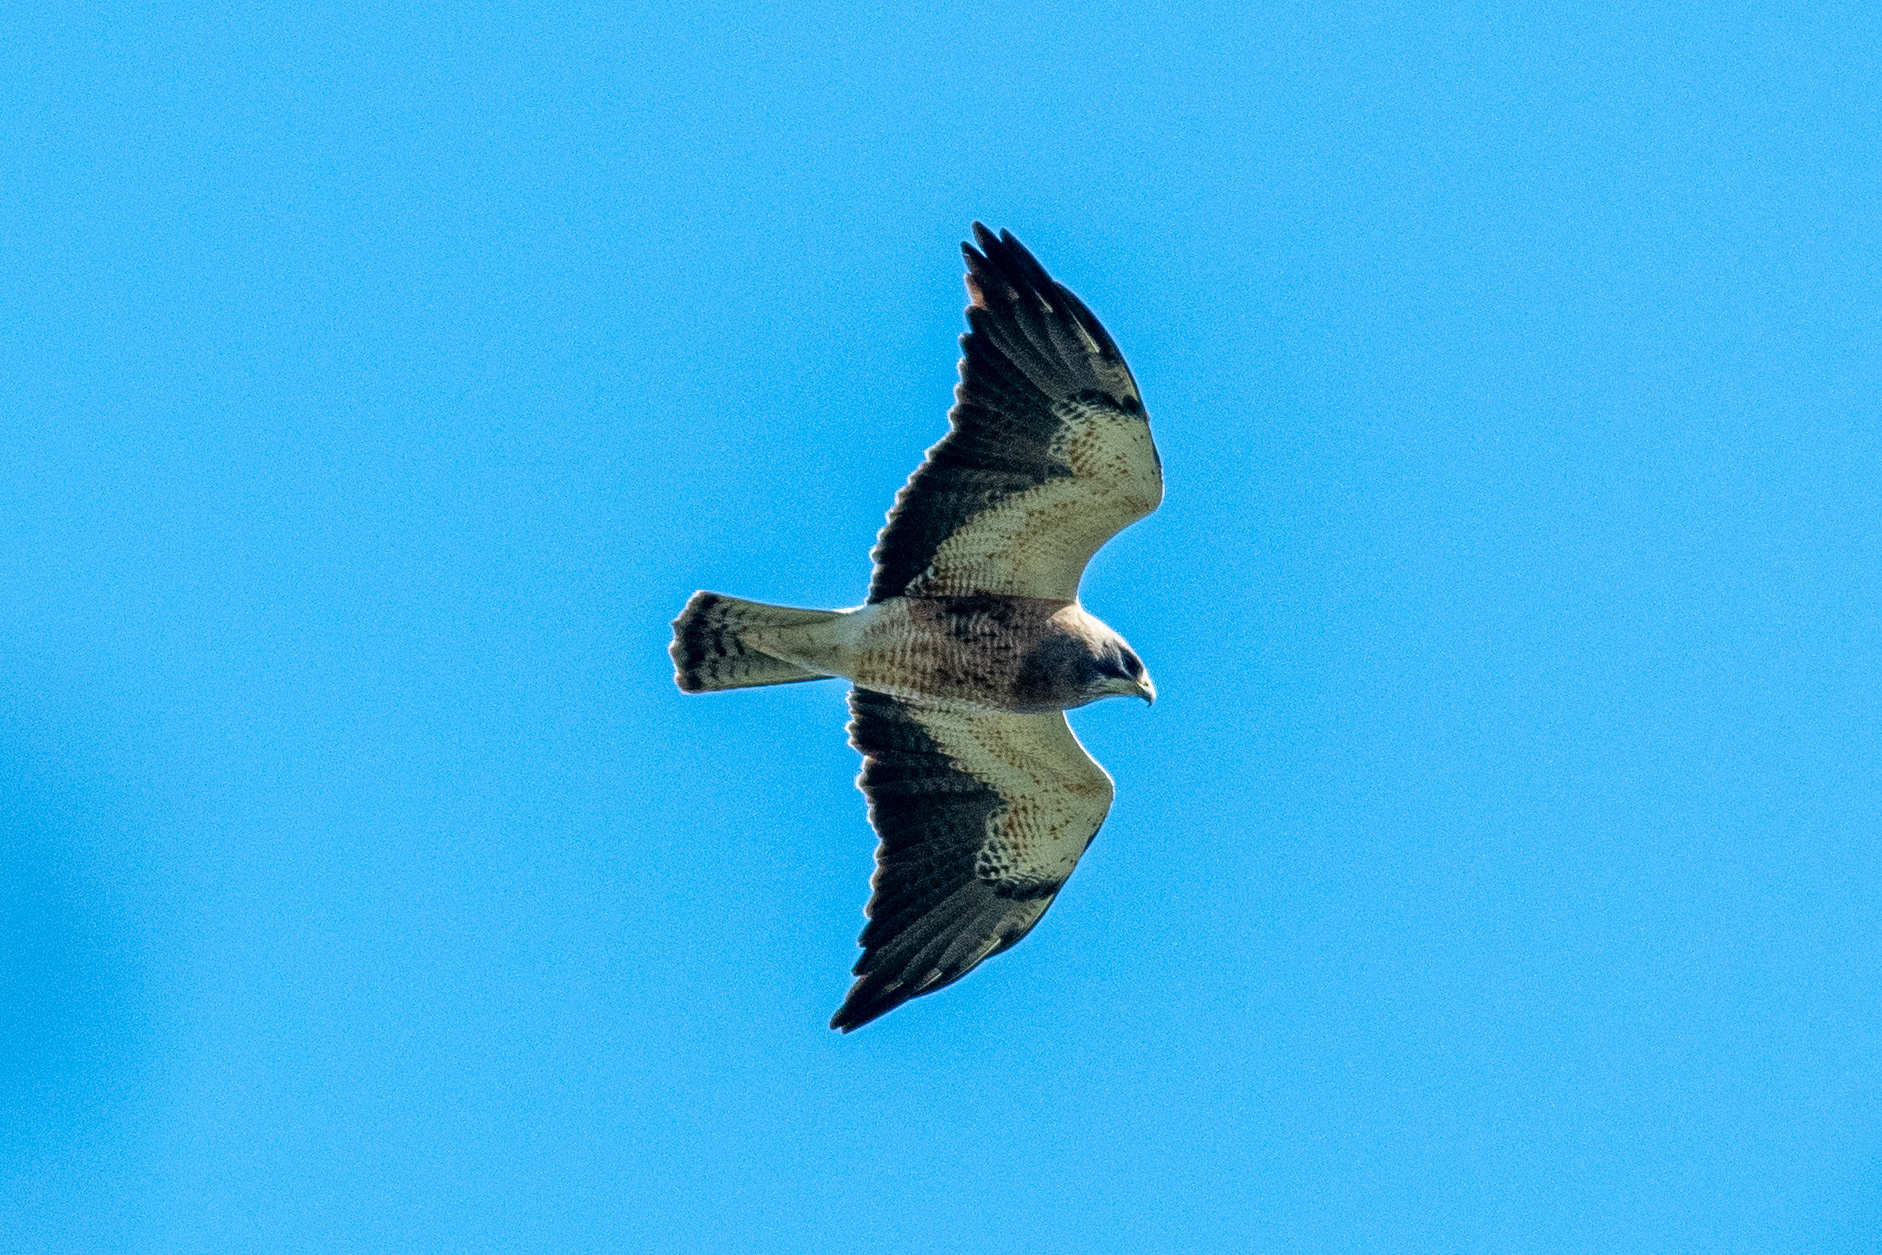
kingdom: Animalia
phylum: Chordata
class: Aves
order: Accipitriformes
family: Accipitridae
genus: Buteo
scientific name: Buteo swainsoni
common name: Swainson's hawk
